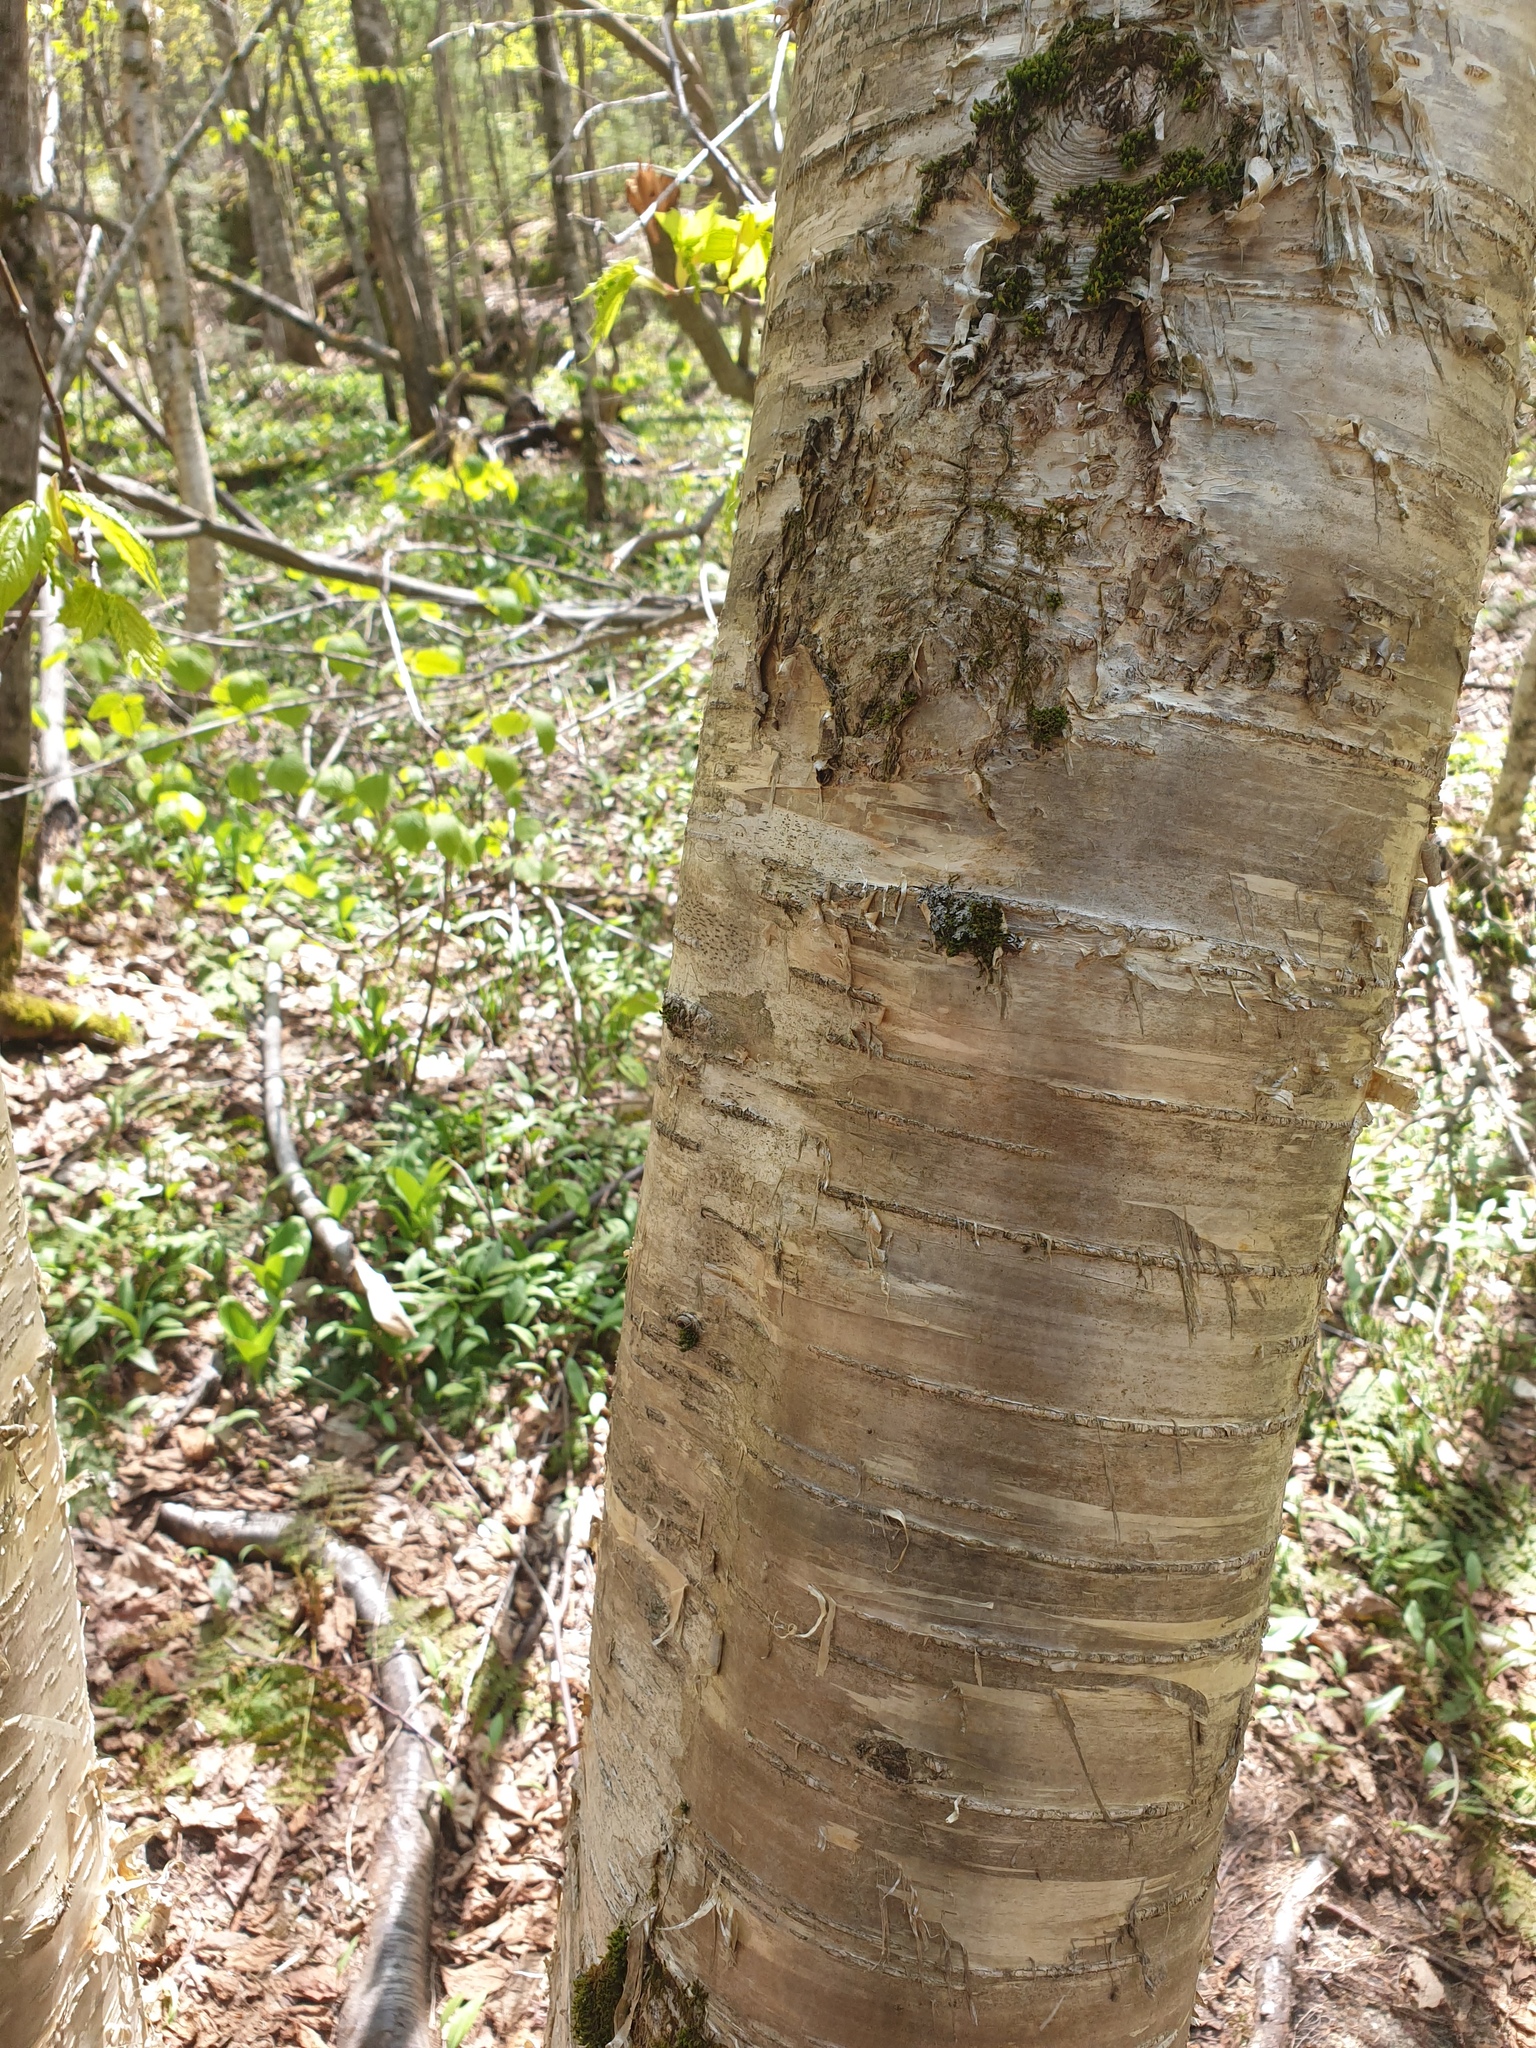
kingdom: Plantae
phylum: Tracheophyta
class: Magnoliopsida
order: Fagales
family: Betulaceae
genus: Betula
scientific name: Betula alleghaniensis
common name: Yellow birch
